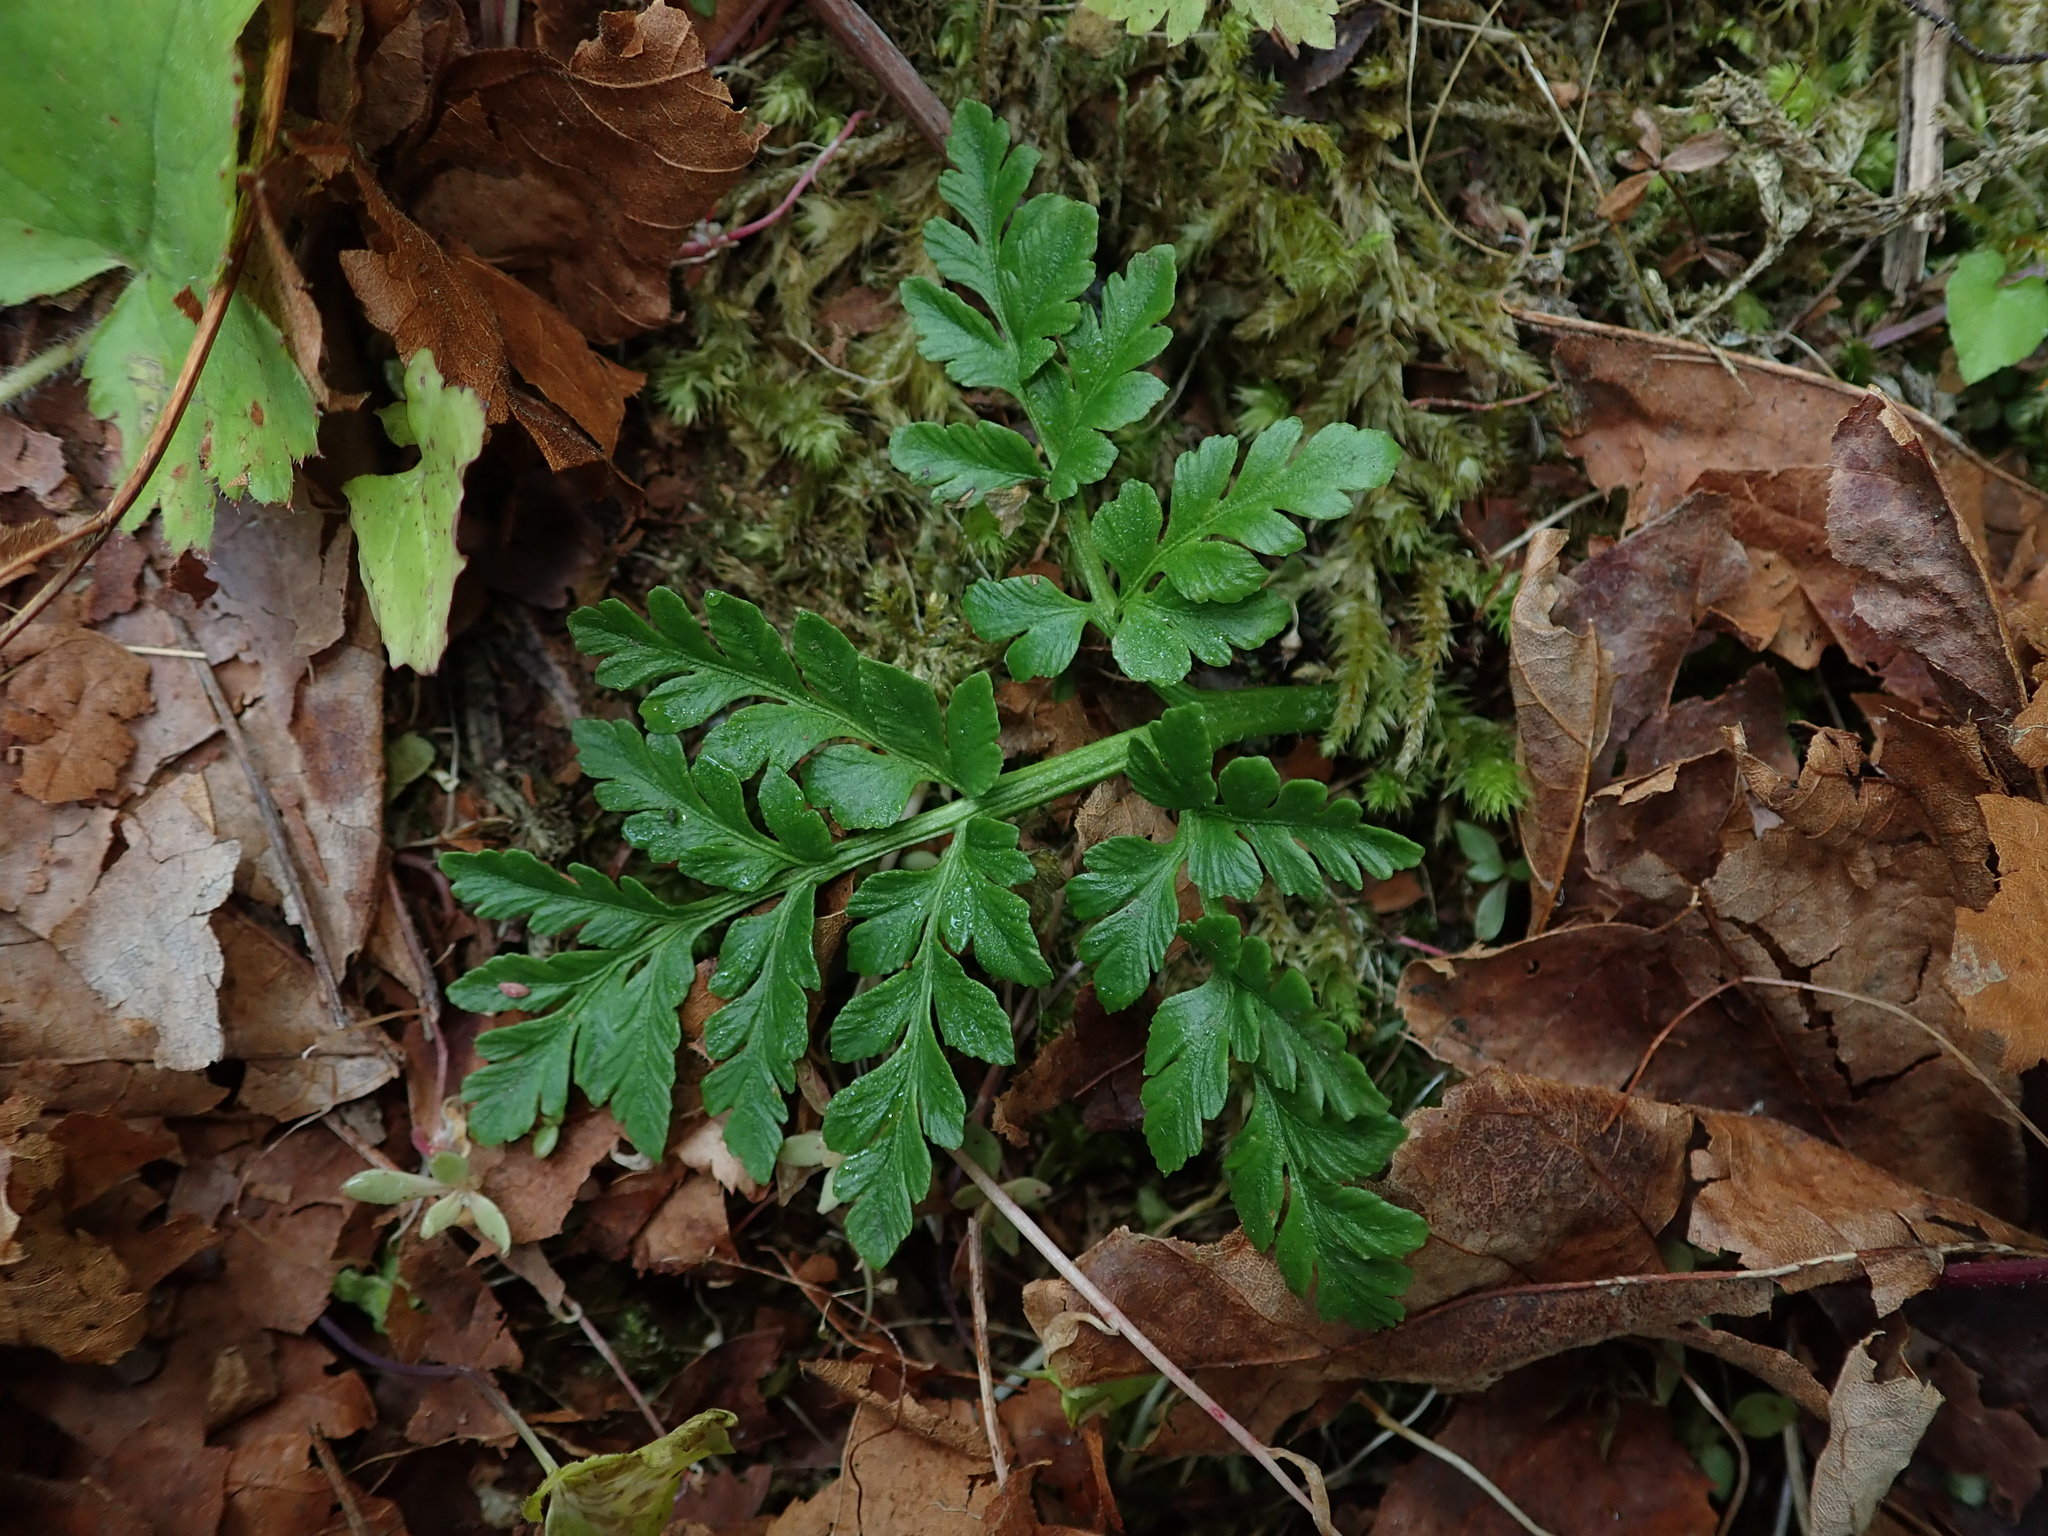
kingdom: Plantae
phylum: Tracheophyta
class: Polypodiopsida
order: Ophioglossales
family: Ophioglossaceae
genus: Sceptridium
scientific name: Sceptridium multifidum
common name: Leathery grape fern
